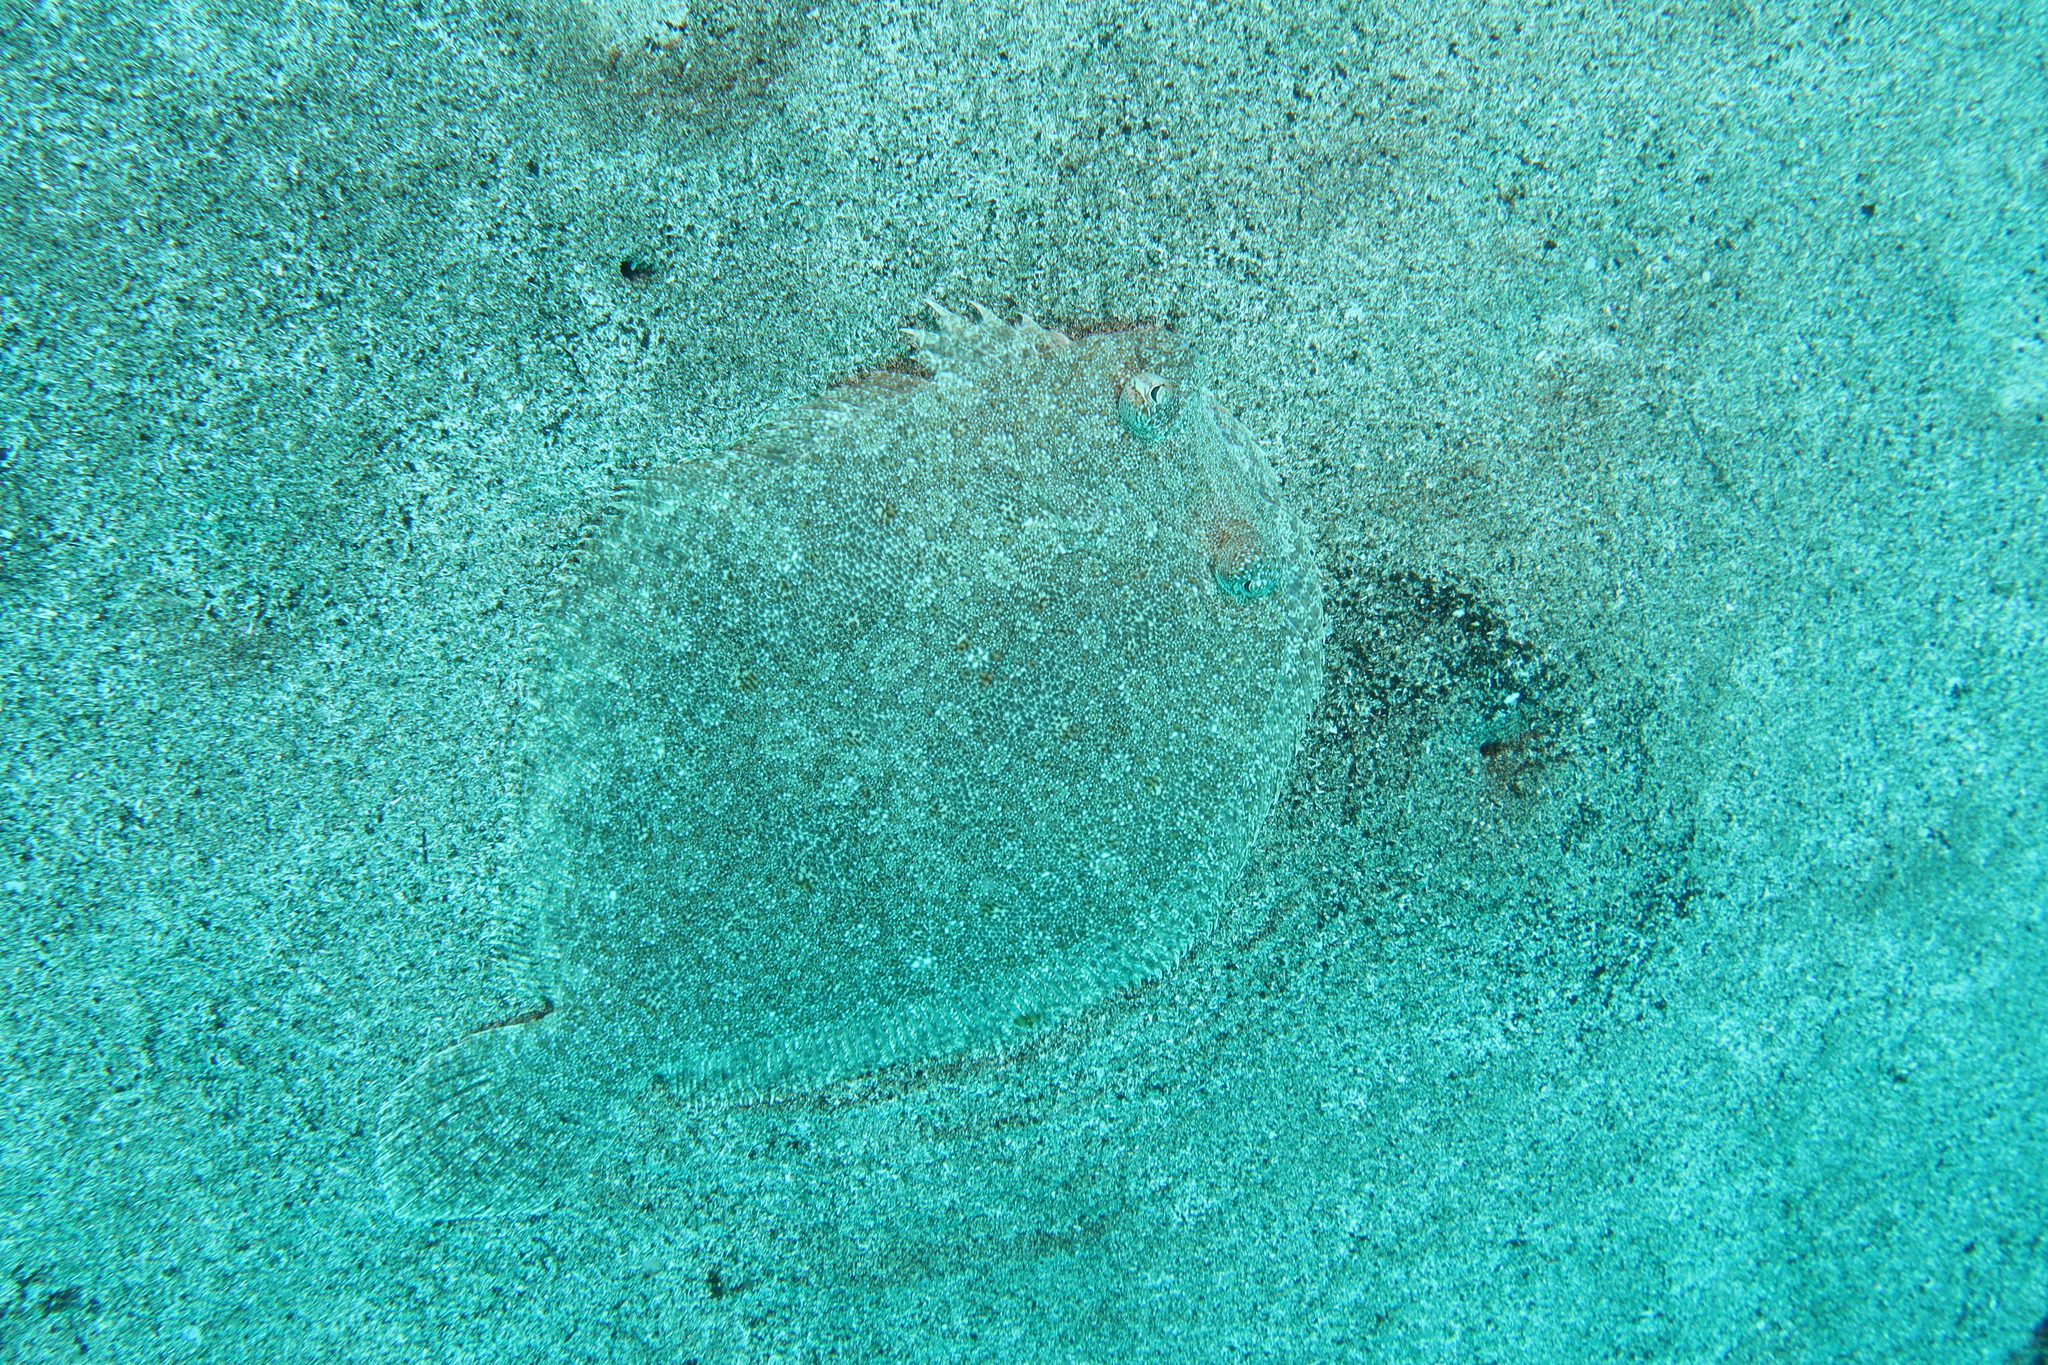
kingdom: Animalia
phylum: Chordata
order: Pleuronectiformes
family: Bothidae
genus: Bothus
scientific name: Bothus podas
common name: Wide-eyed flounder
